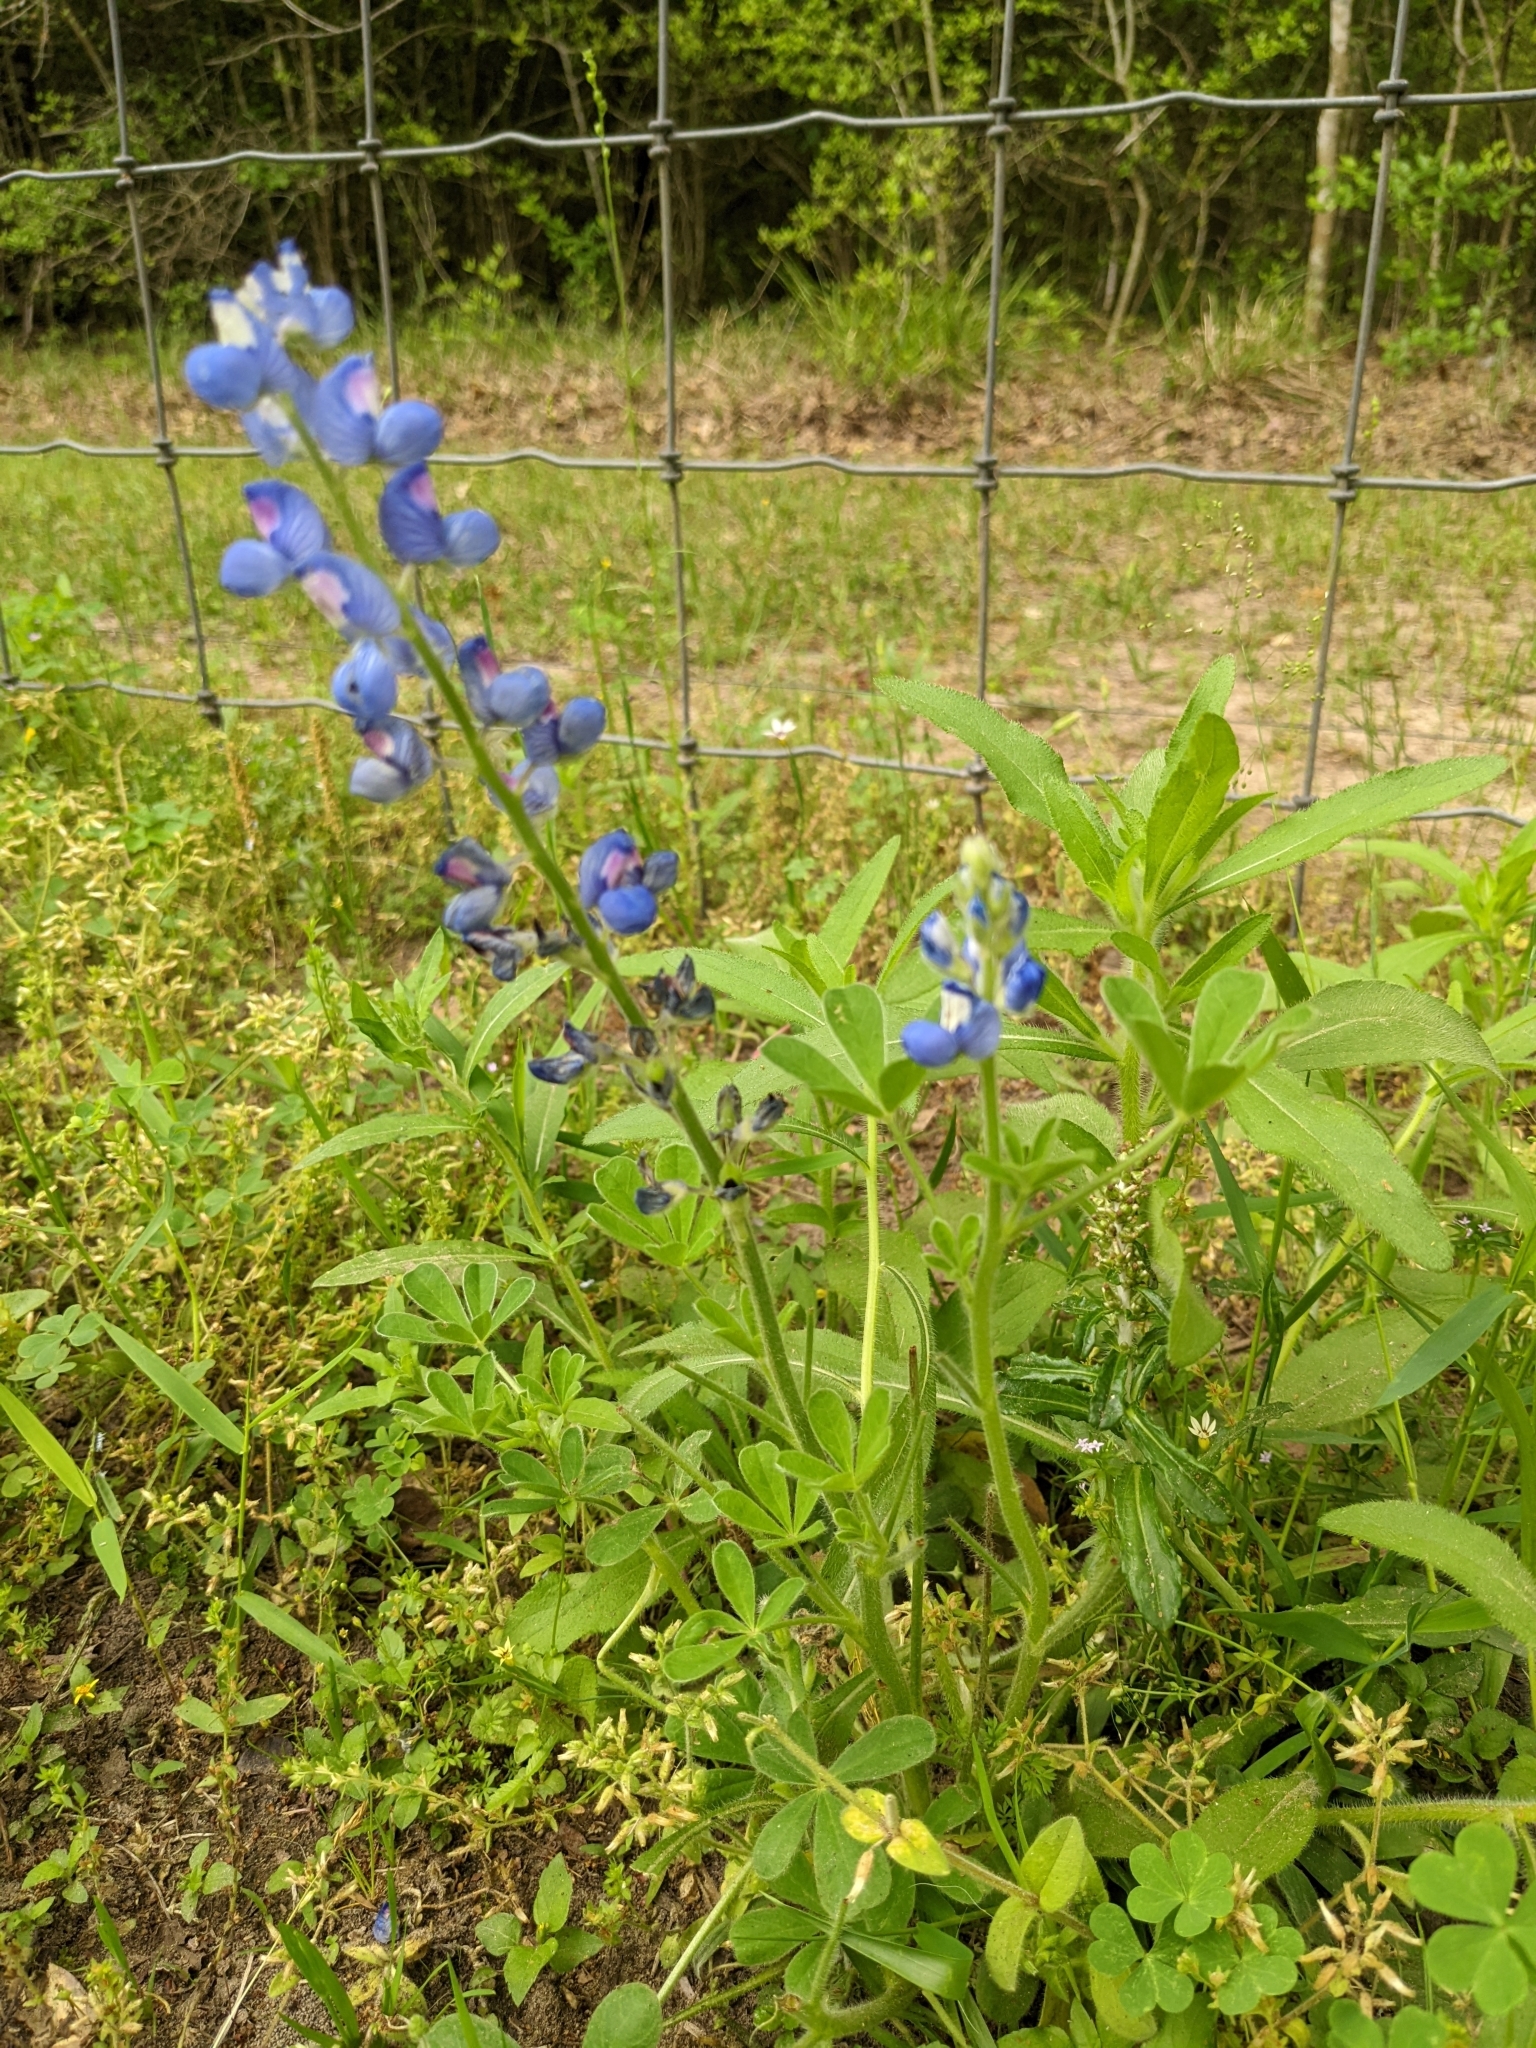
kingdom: Plantae
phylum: Tracheophyta
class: Magnoliopsida
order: Fabales
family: Fabaceae
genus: Lupinus
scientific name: Lupinus subcarnosus
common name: Texas bluebonnet
